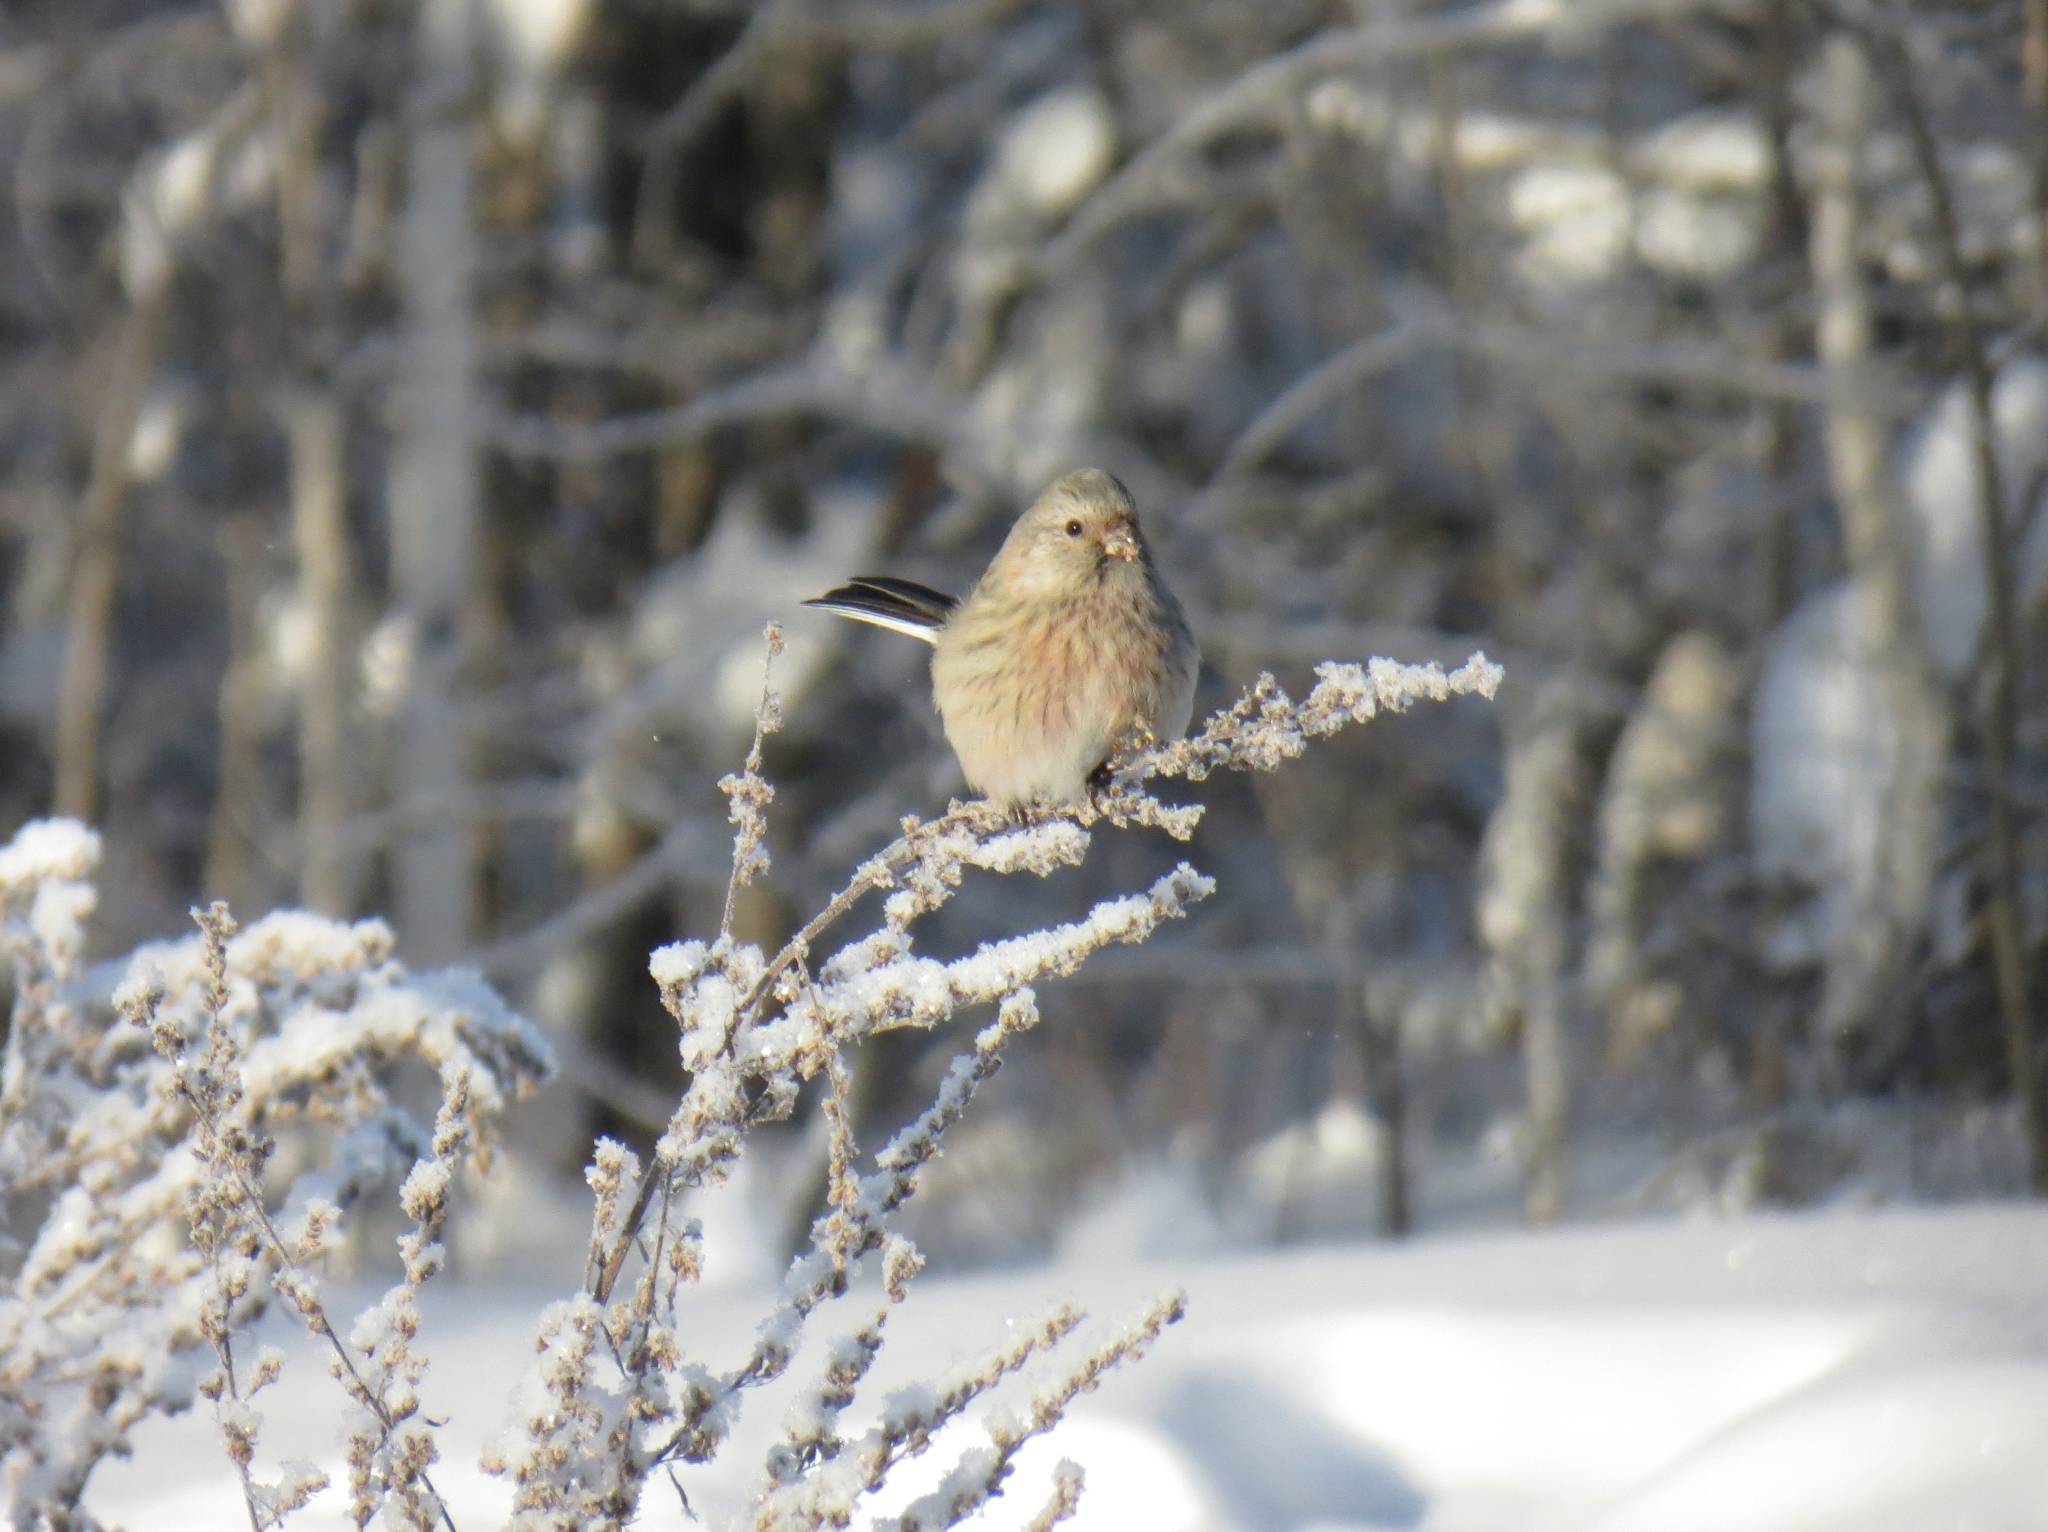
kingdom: Animalia
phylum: Chordata
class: Aves
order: Passeriformes
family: Fringillidae
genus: Carpodacus
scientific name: Carpodacus sibiricus
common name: Long-tailed rosefinch
